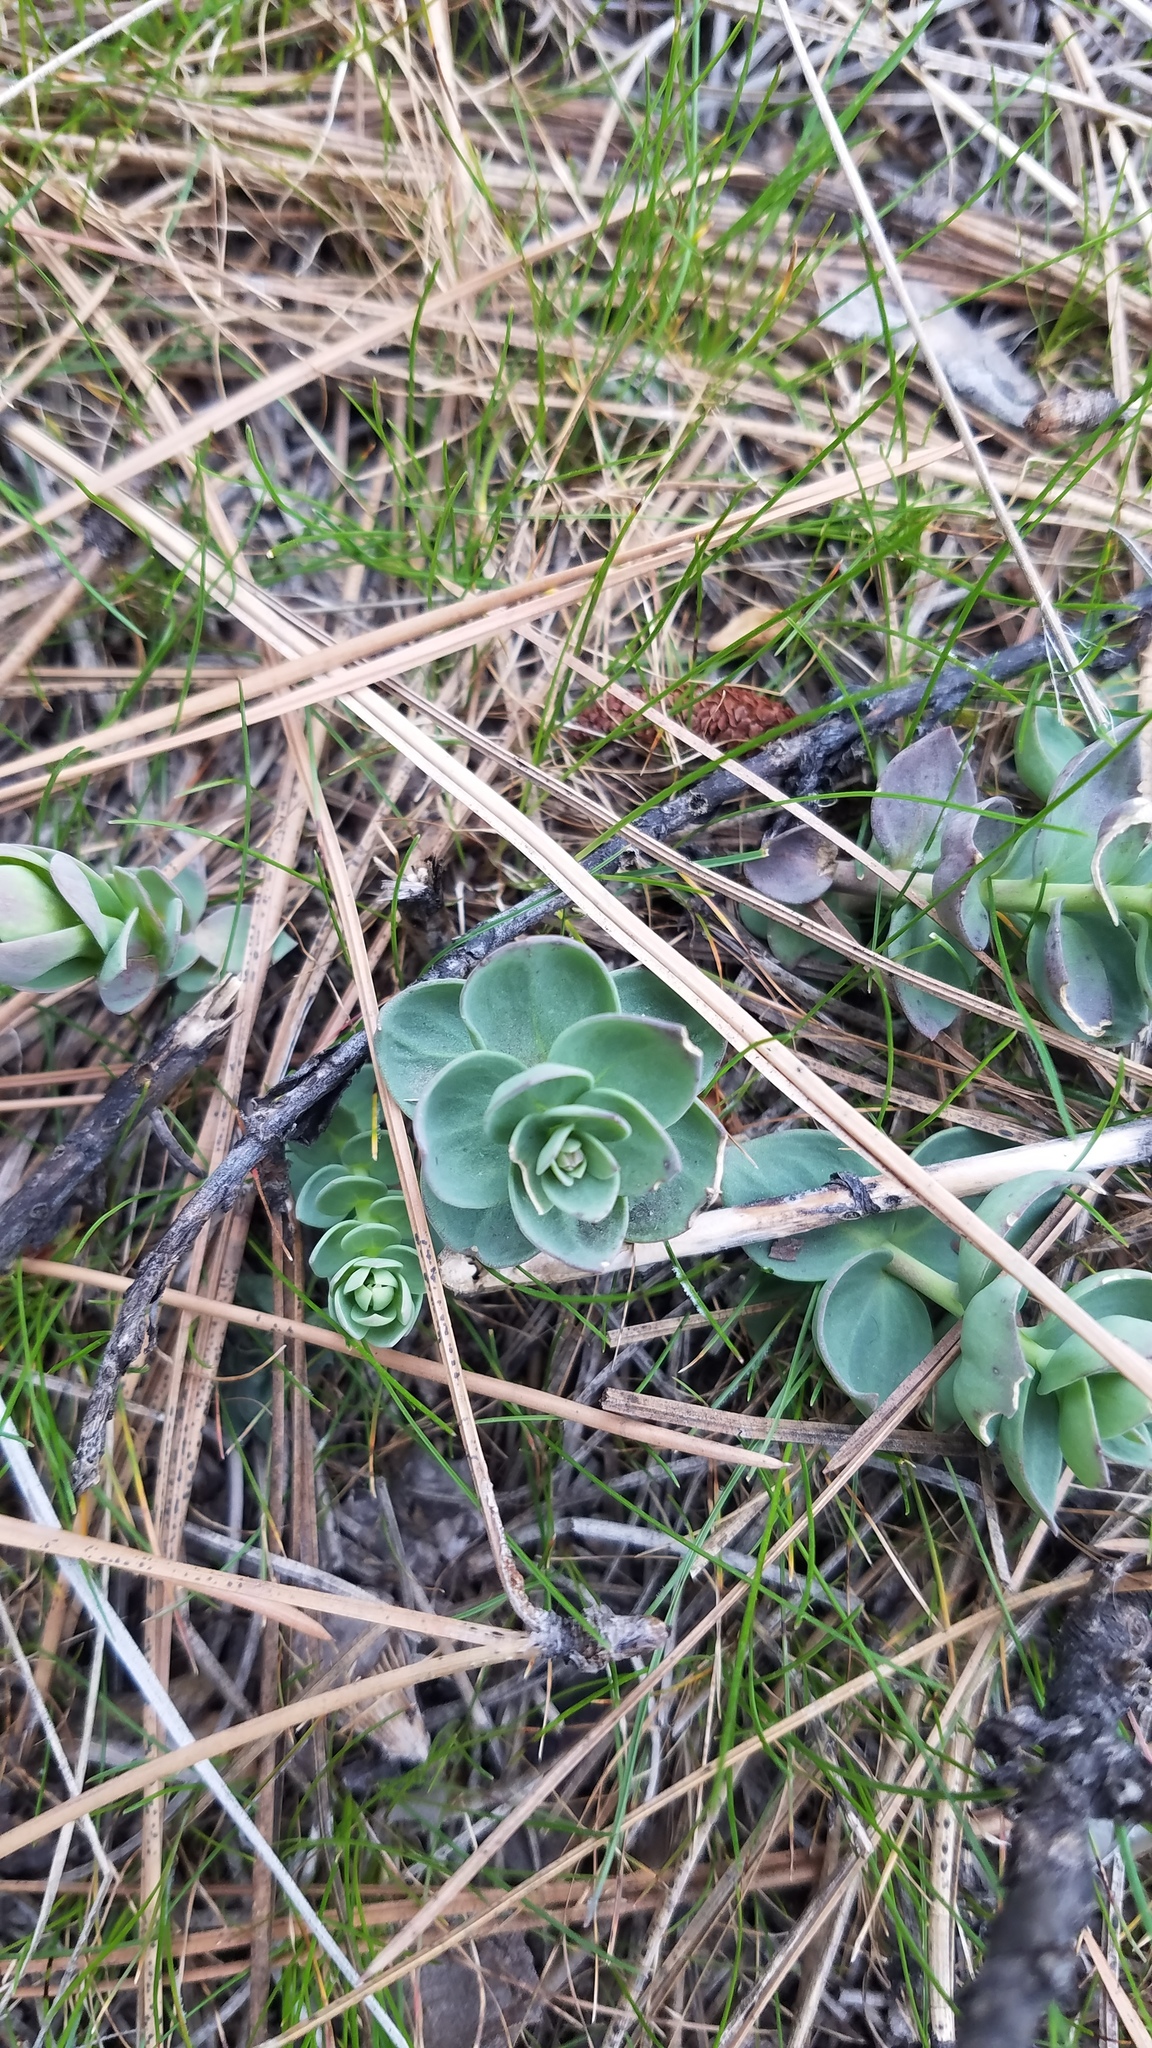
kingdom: Plantae
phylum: Tracheophyta
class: Magnoliopsida
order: Lamiales
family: Plantaginaceae
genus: Linaria
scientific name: Linaria dalmatica
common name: Dalmatian toadflax
